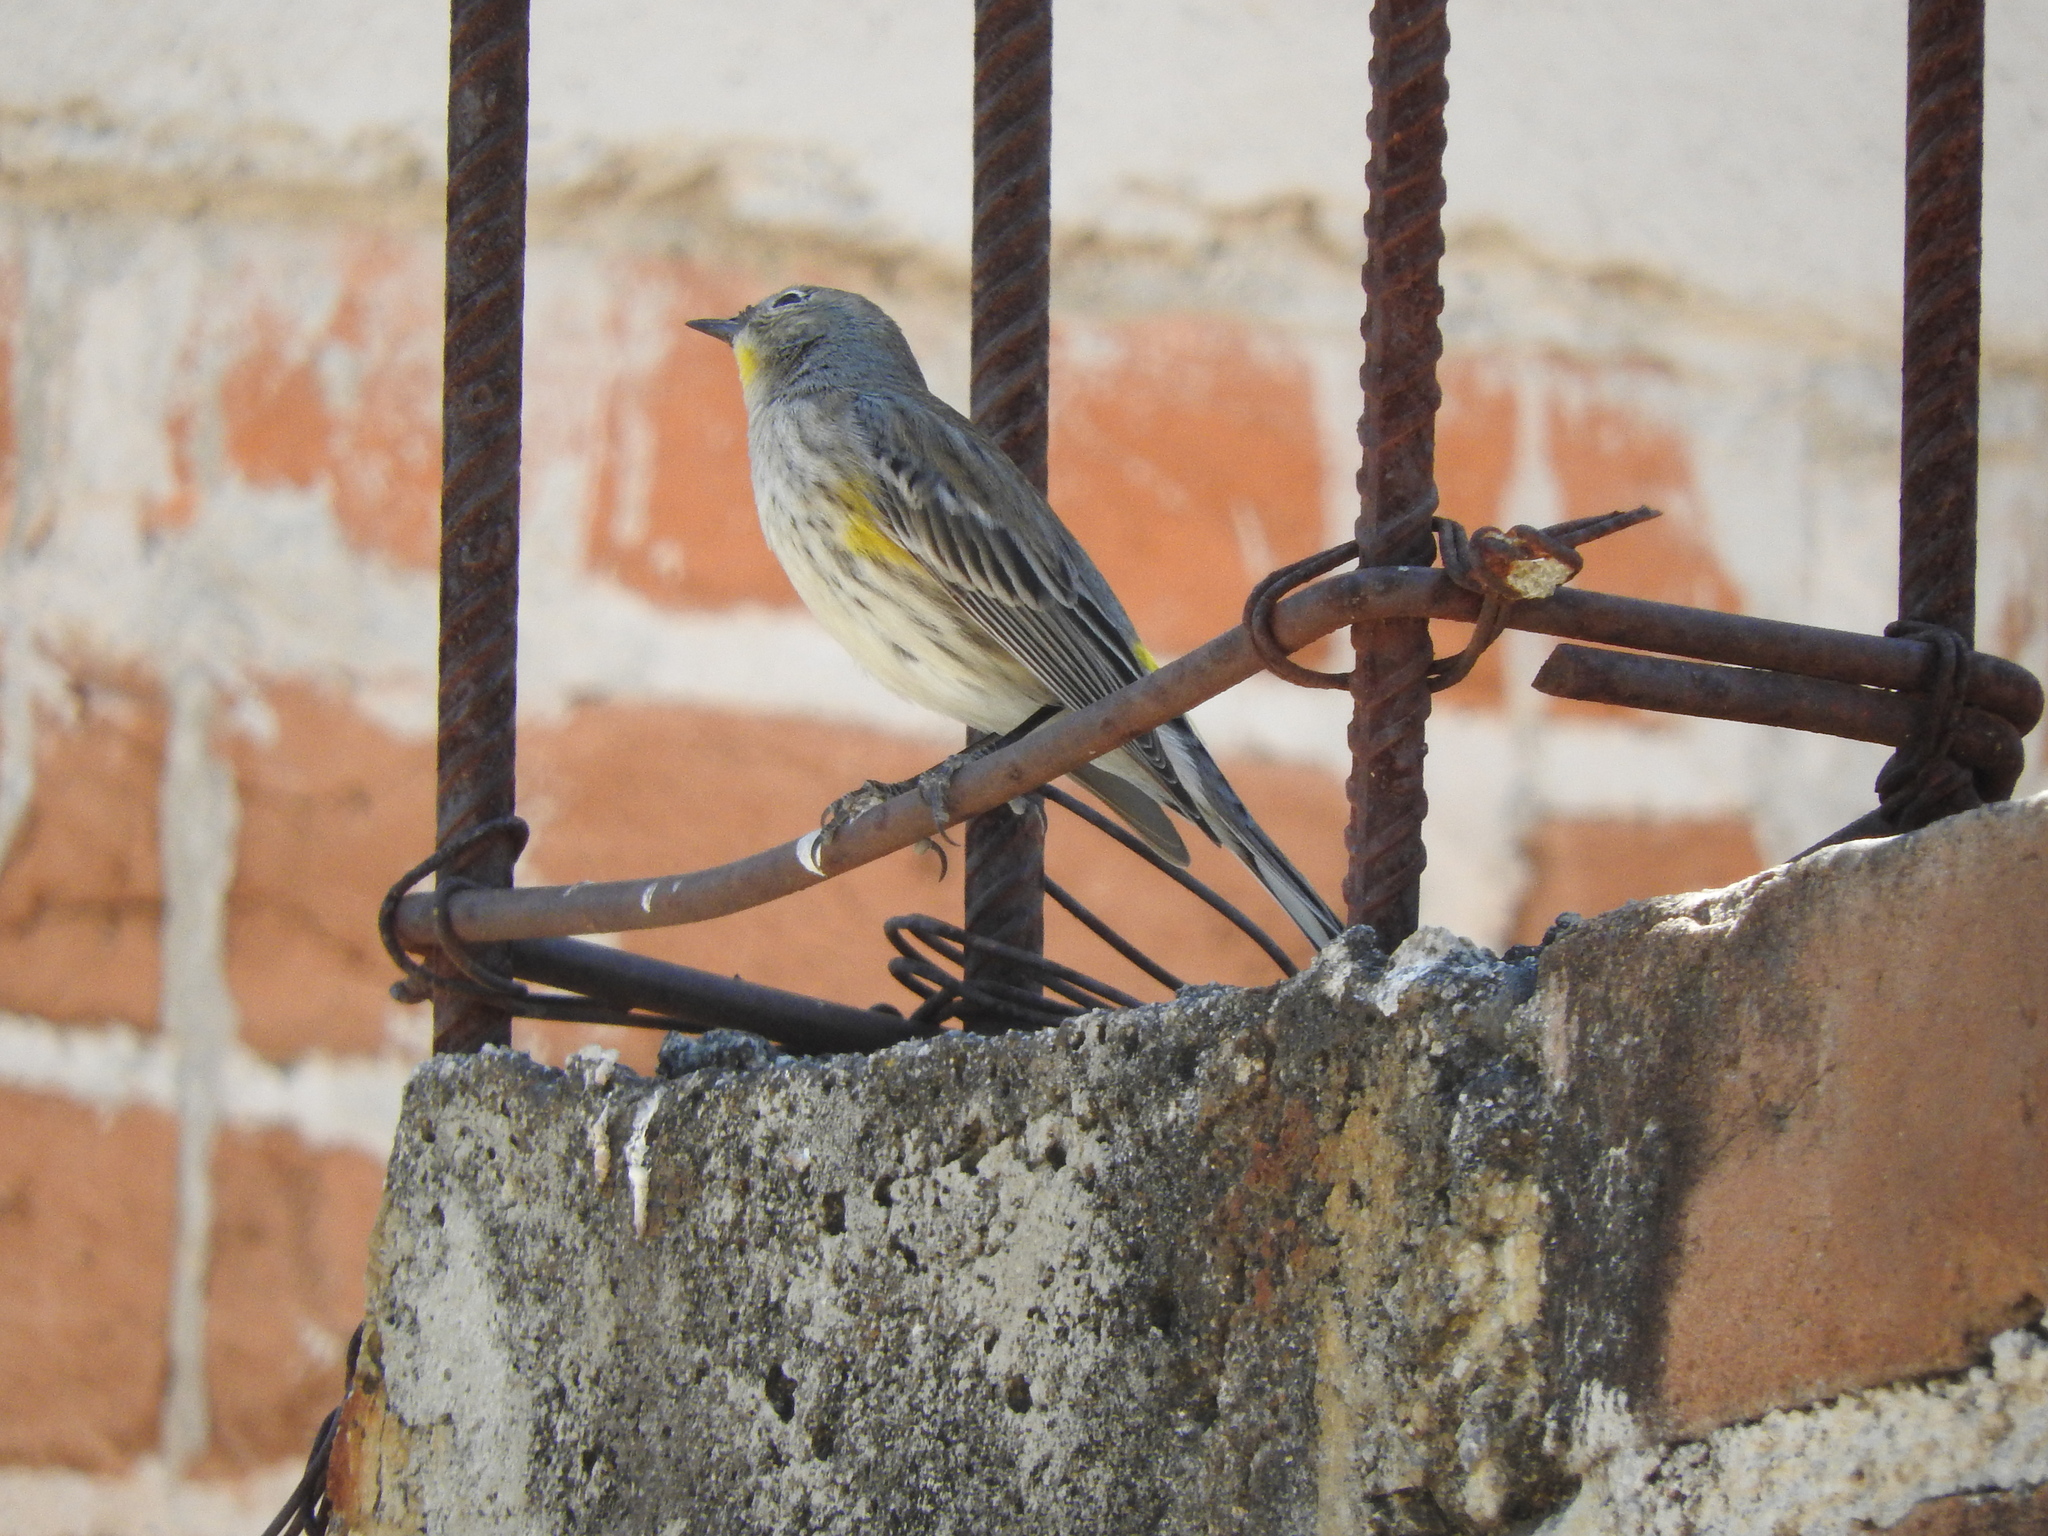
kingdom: Animalia
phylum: Chordata
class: Aves
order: Passeriformes
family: Parulidae
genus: Setophaga
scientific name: Setophaga coronata
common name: Myrtle warbler
